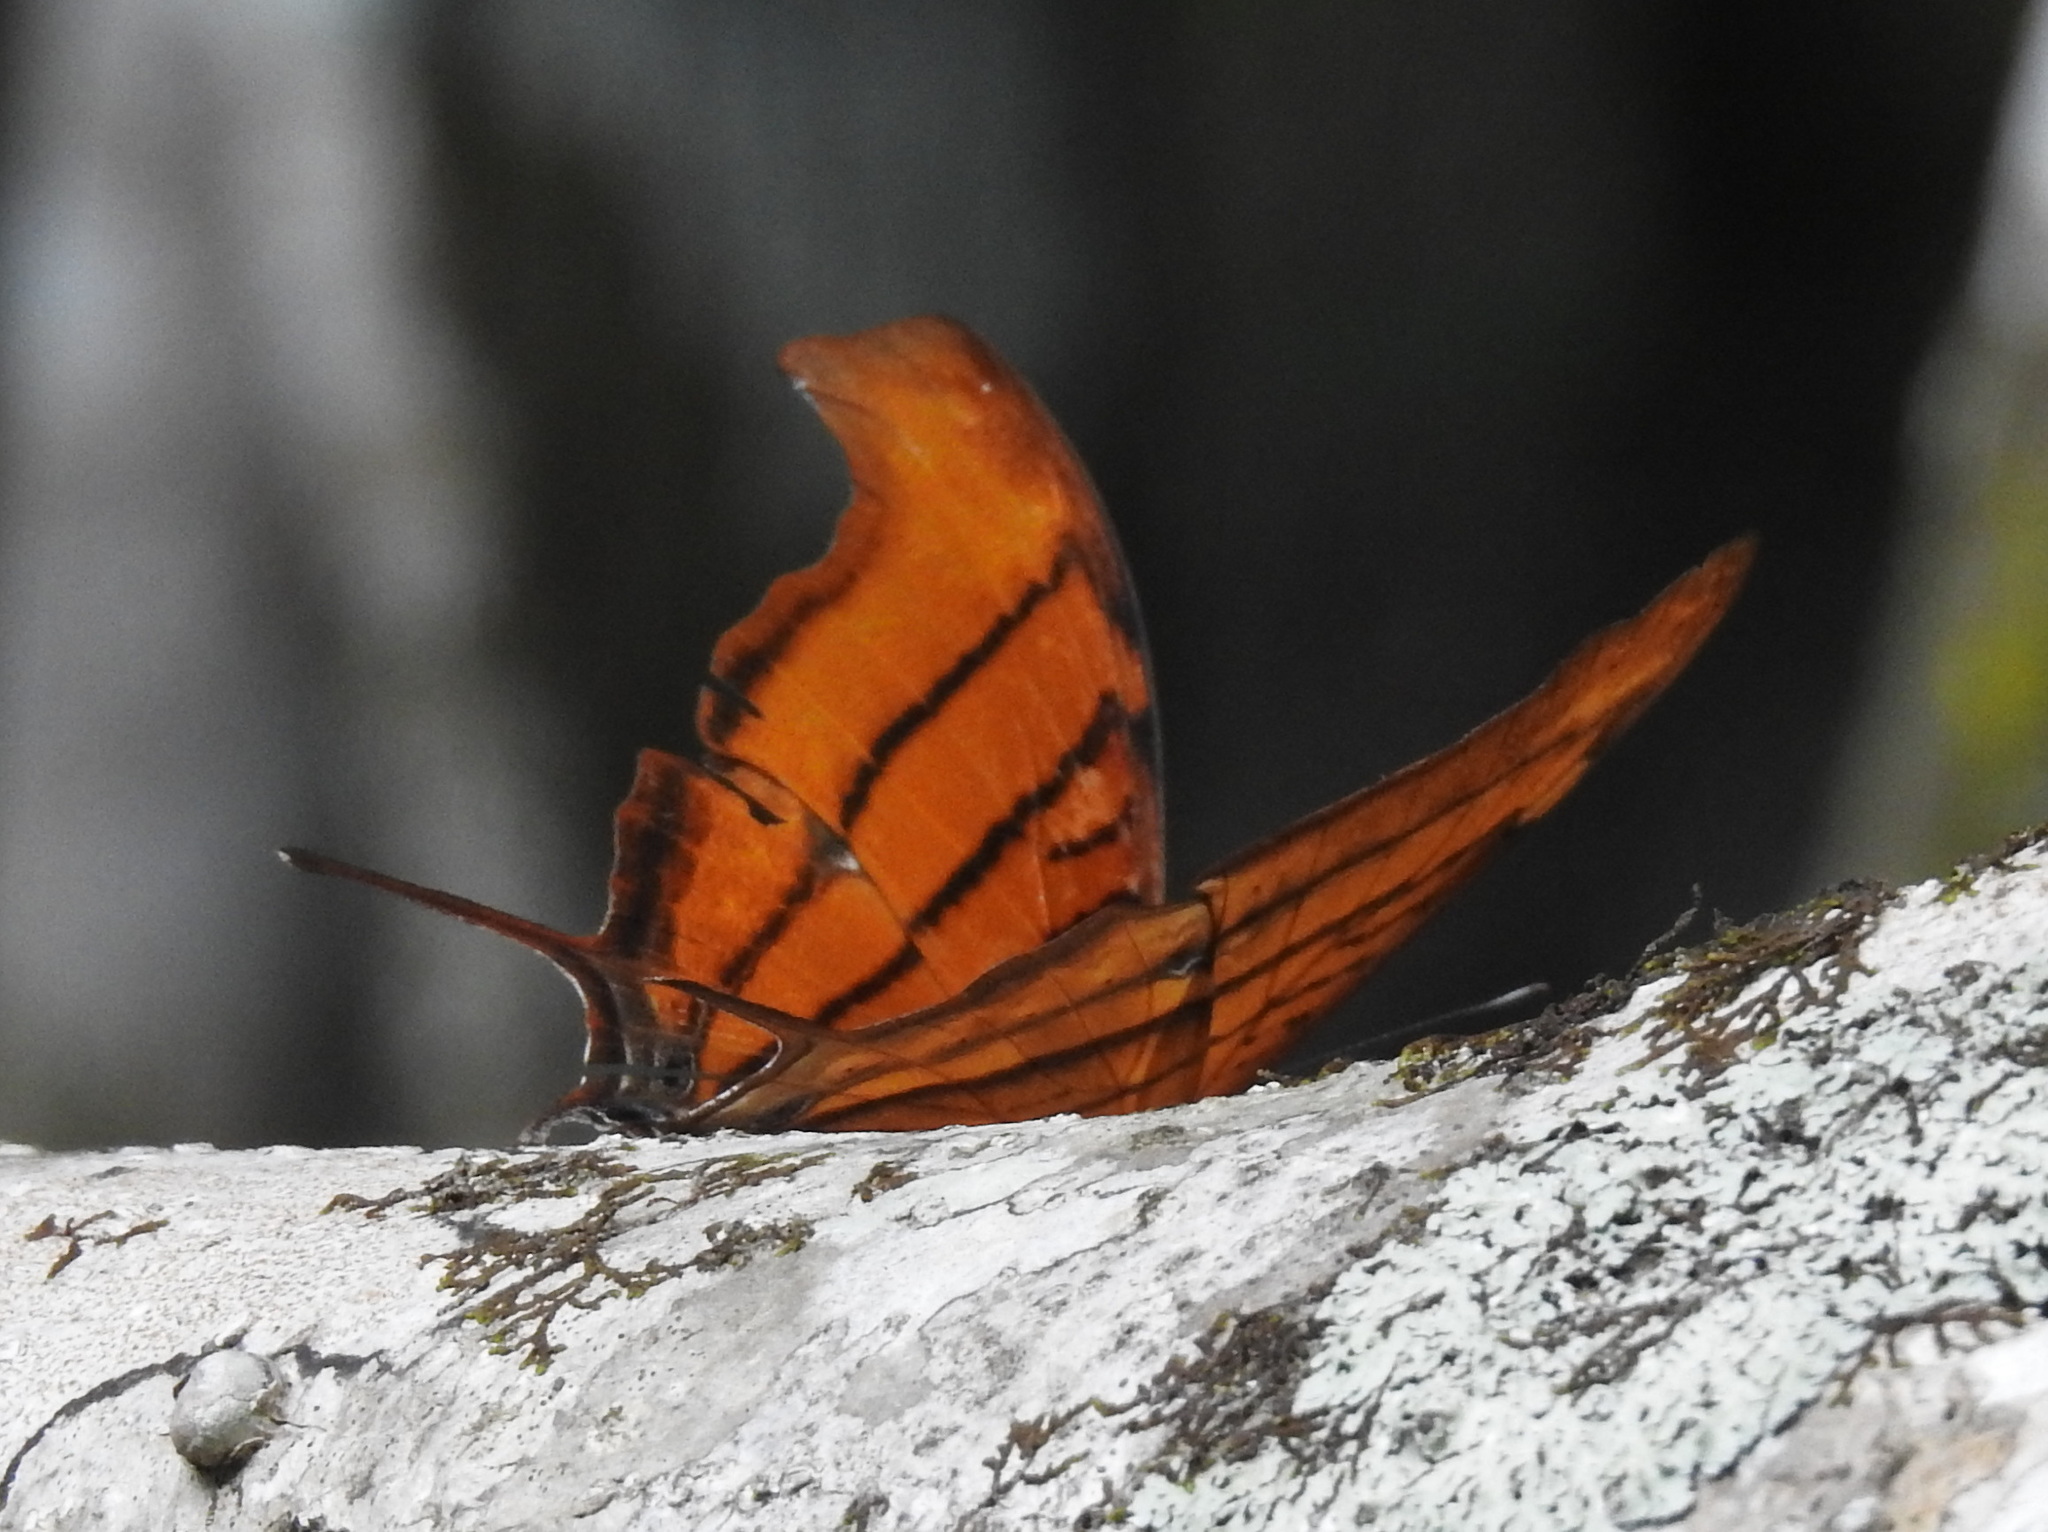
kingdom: Animalia
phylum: Arthropoda
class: Insecta
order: Lepidoptera
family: Nymphalidae
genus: Marpesia
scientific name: Marpesia petreus
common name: Red dagger wing
